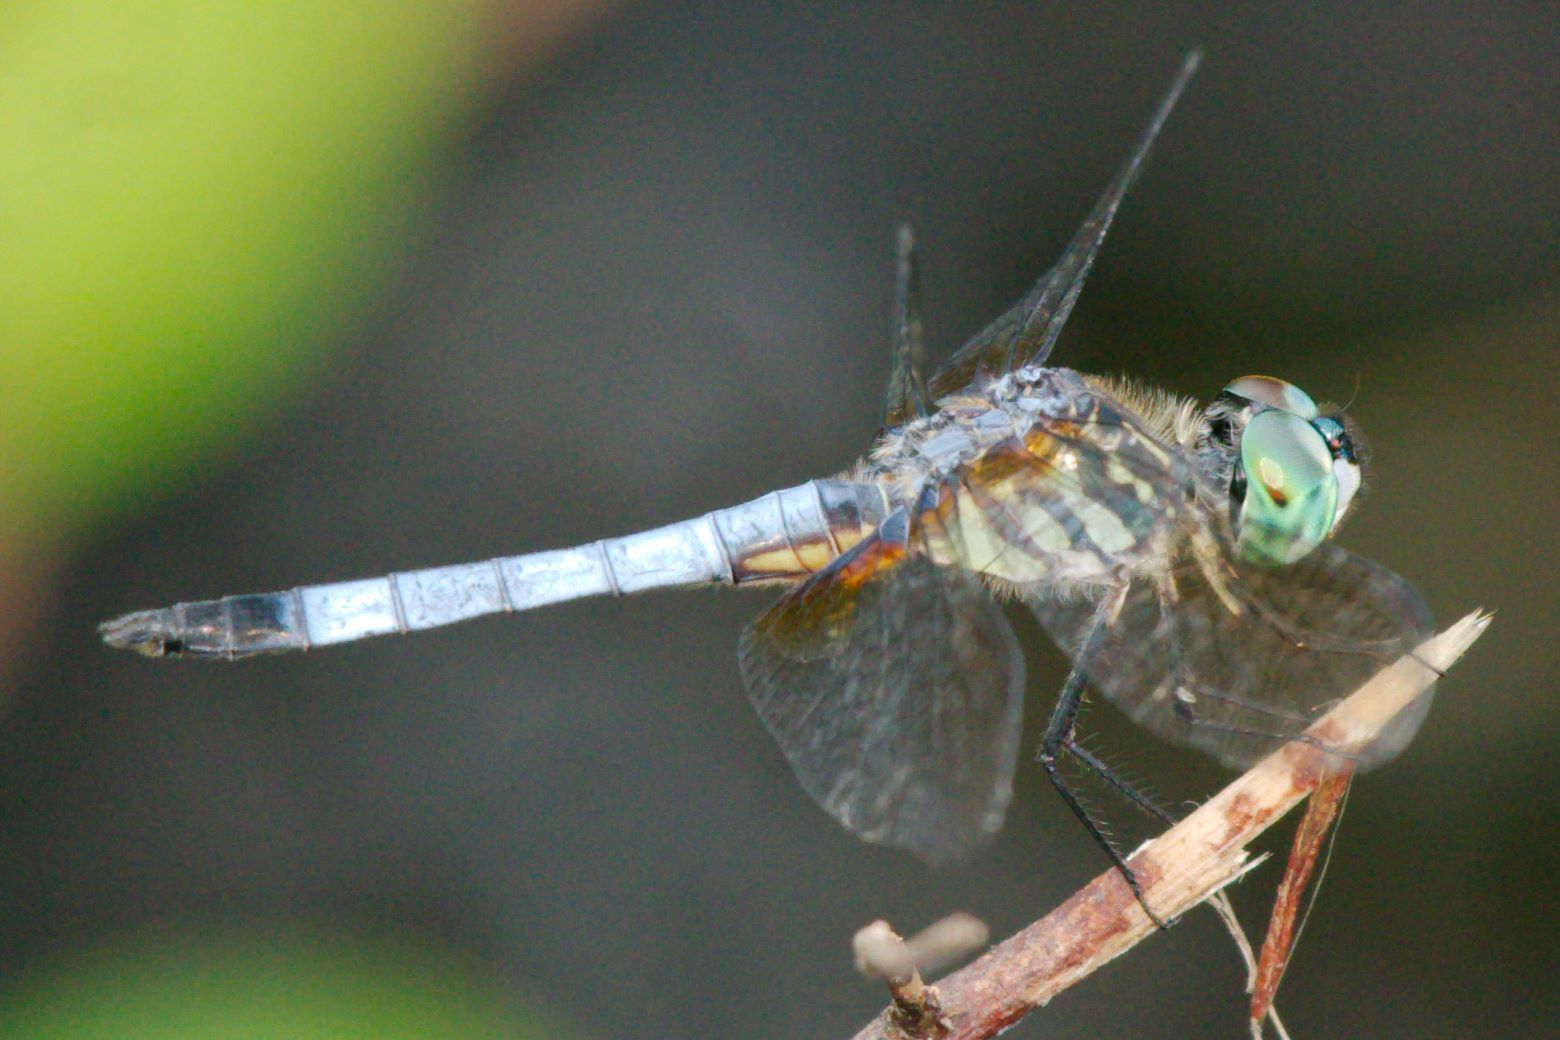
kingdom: Animalia
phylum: Arthropoda
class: Insecta
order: Odonata
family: Libellulidae
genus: Pachydiplax
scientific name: Pachydiplax longipennis
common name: Blue dasher
